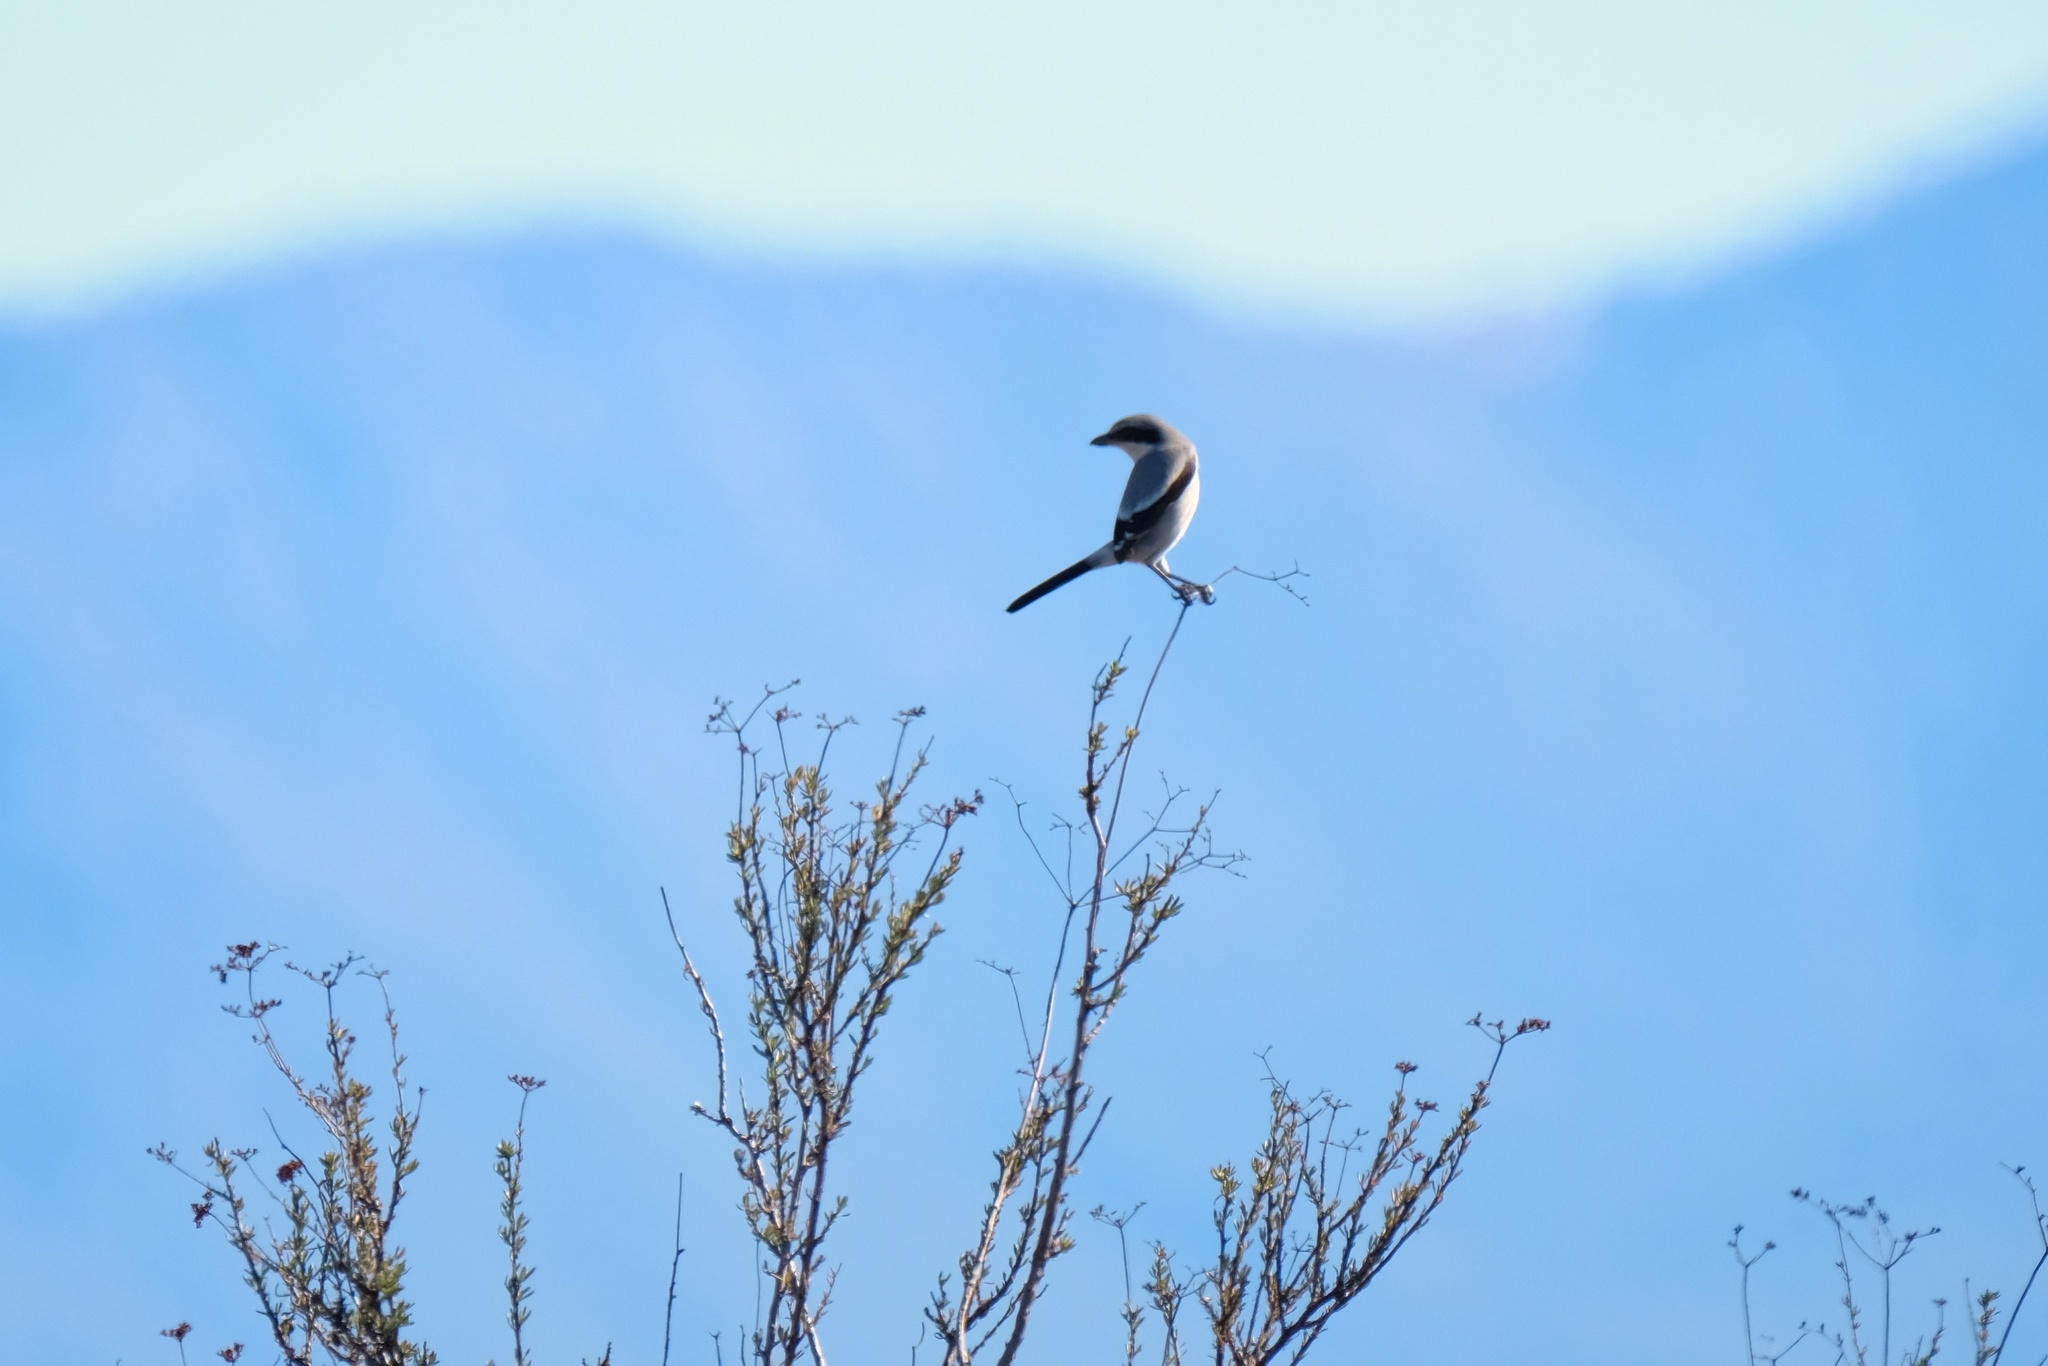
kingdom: Animalia
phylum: Chordata
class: Aves
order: Passeriformes
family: Laniidae
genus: Lanius
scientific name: Lanius ludovicianus
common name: Loggerhead shrike
